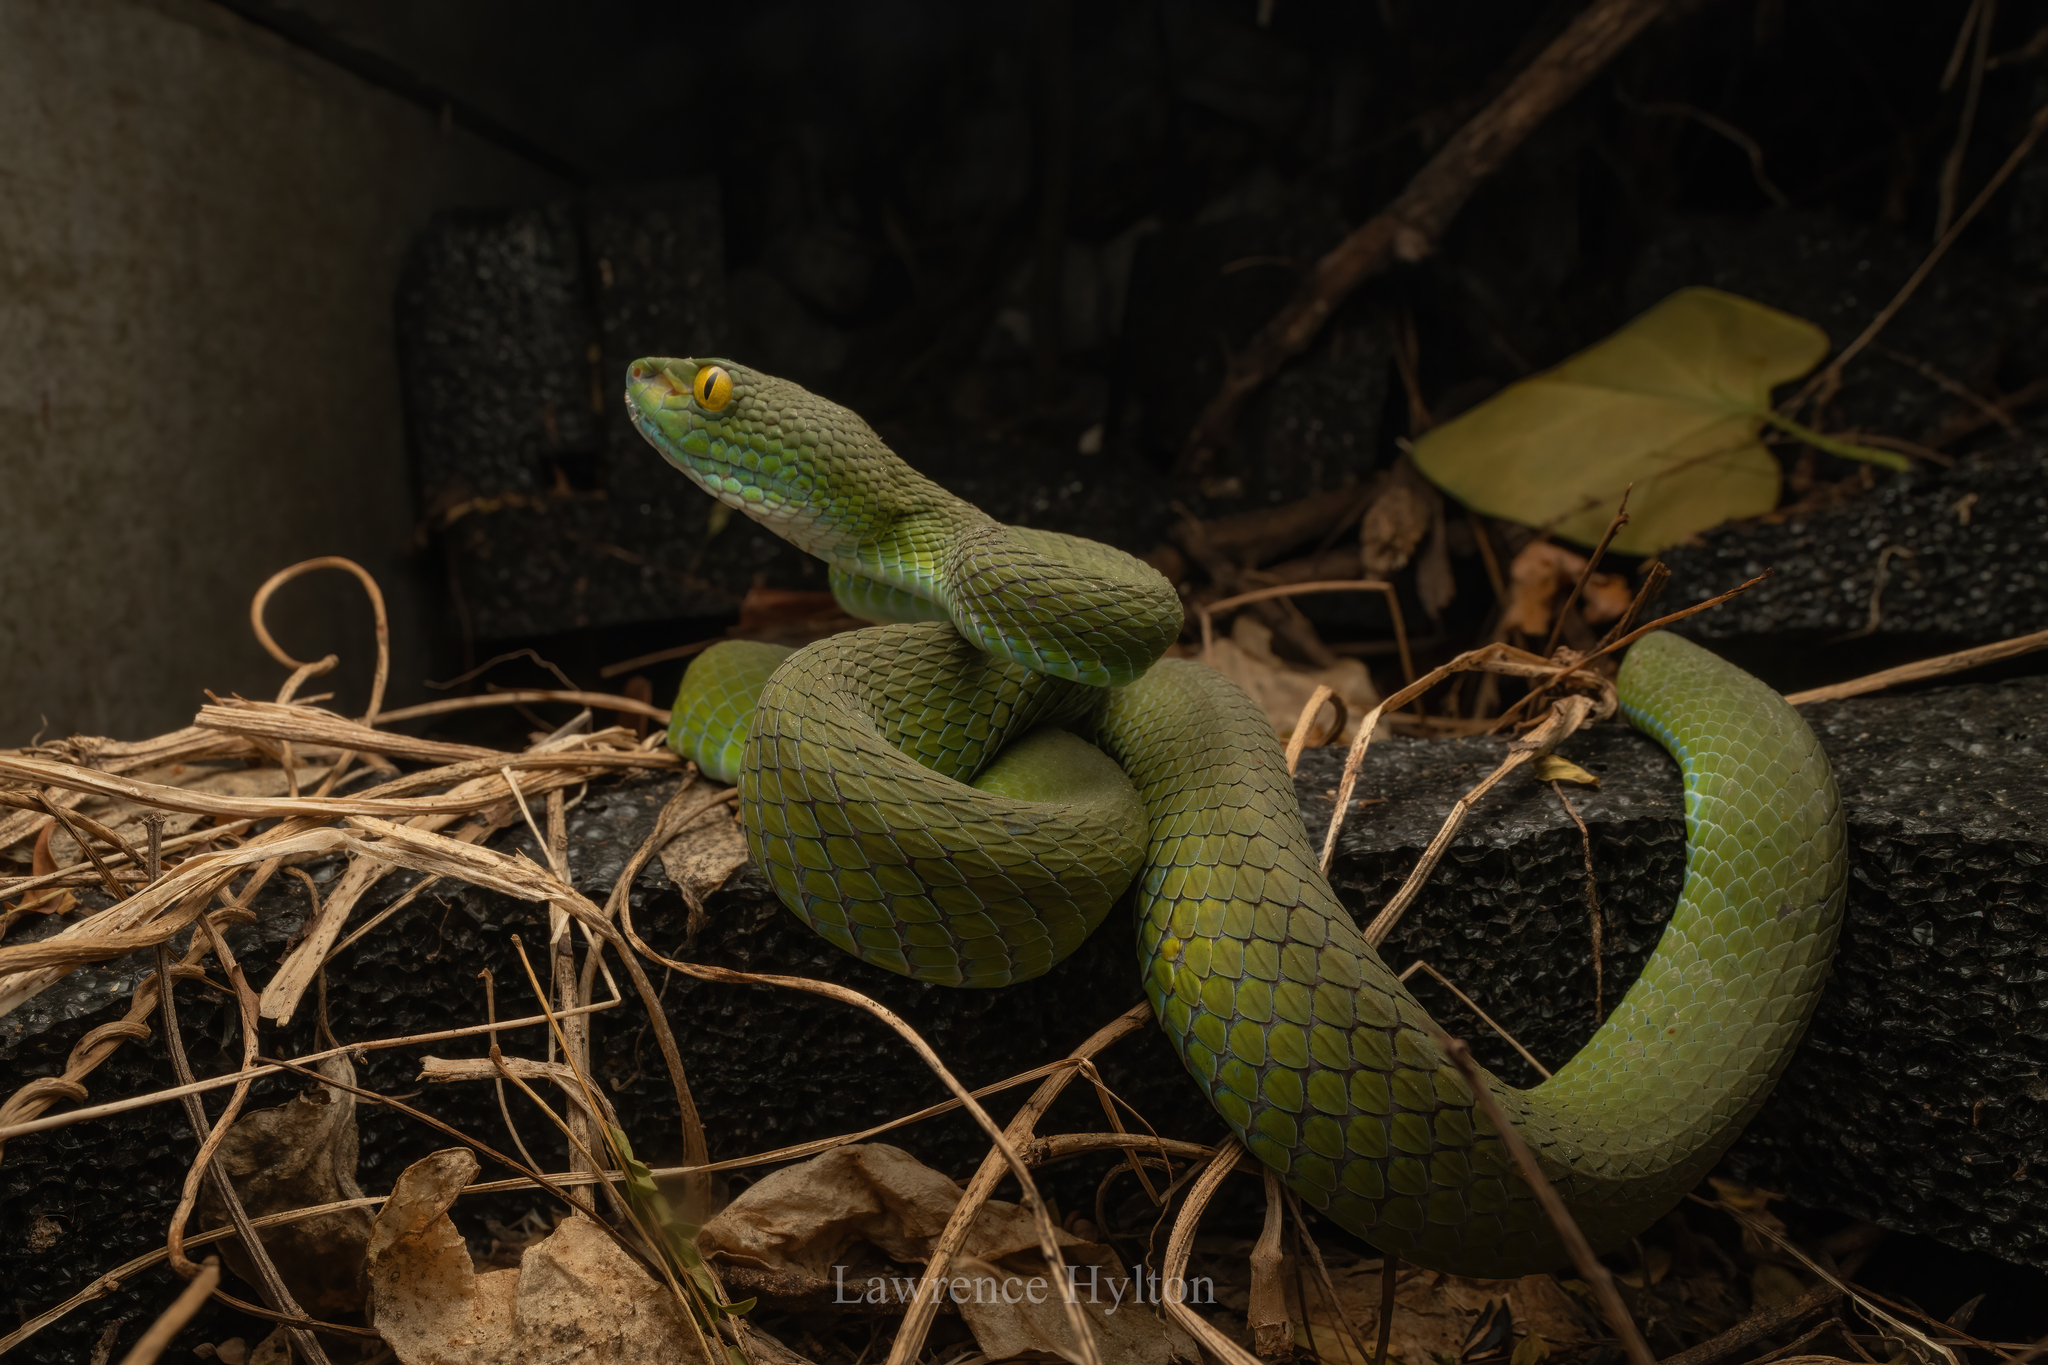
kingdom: Animalia
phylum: Chordata
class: Squamata
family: Viperidae
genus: Trimeresurus
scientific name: Trimeresurus macrops
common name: Kramer's pit viper
